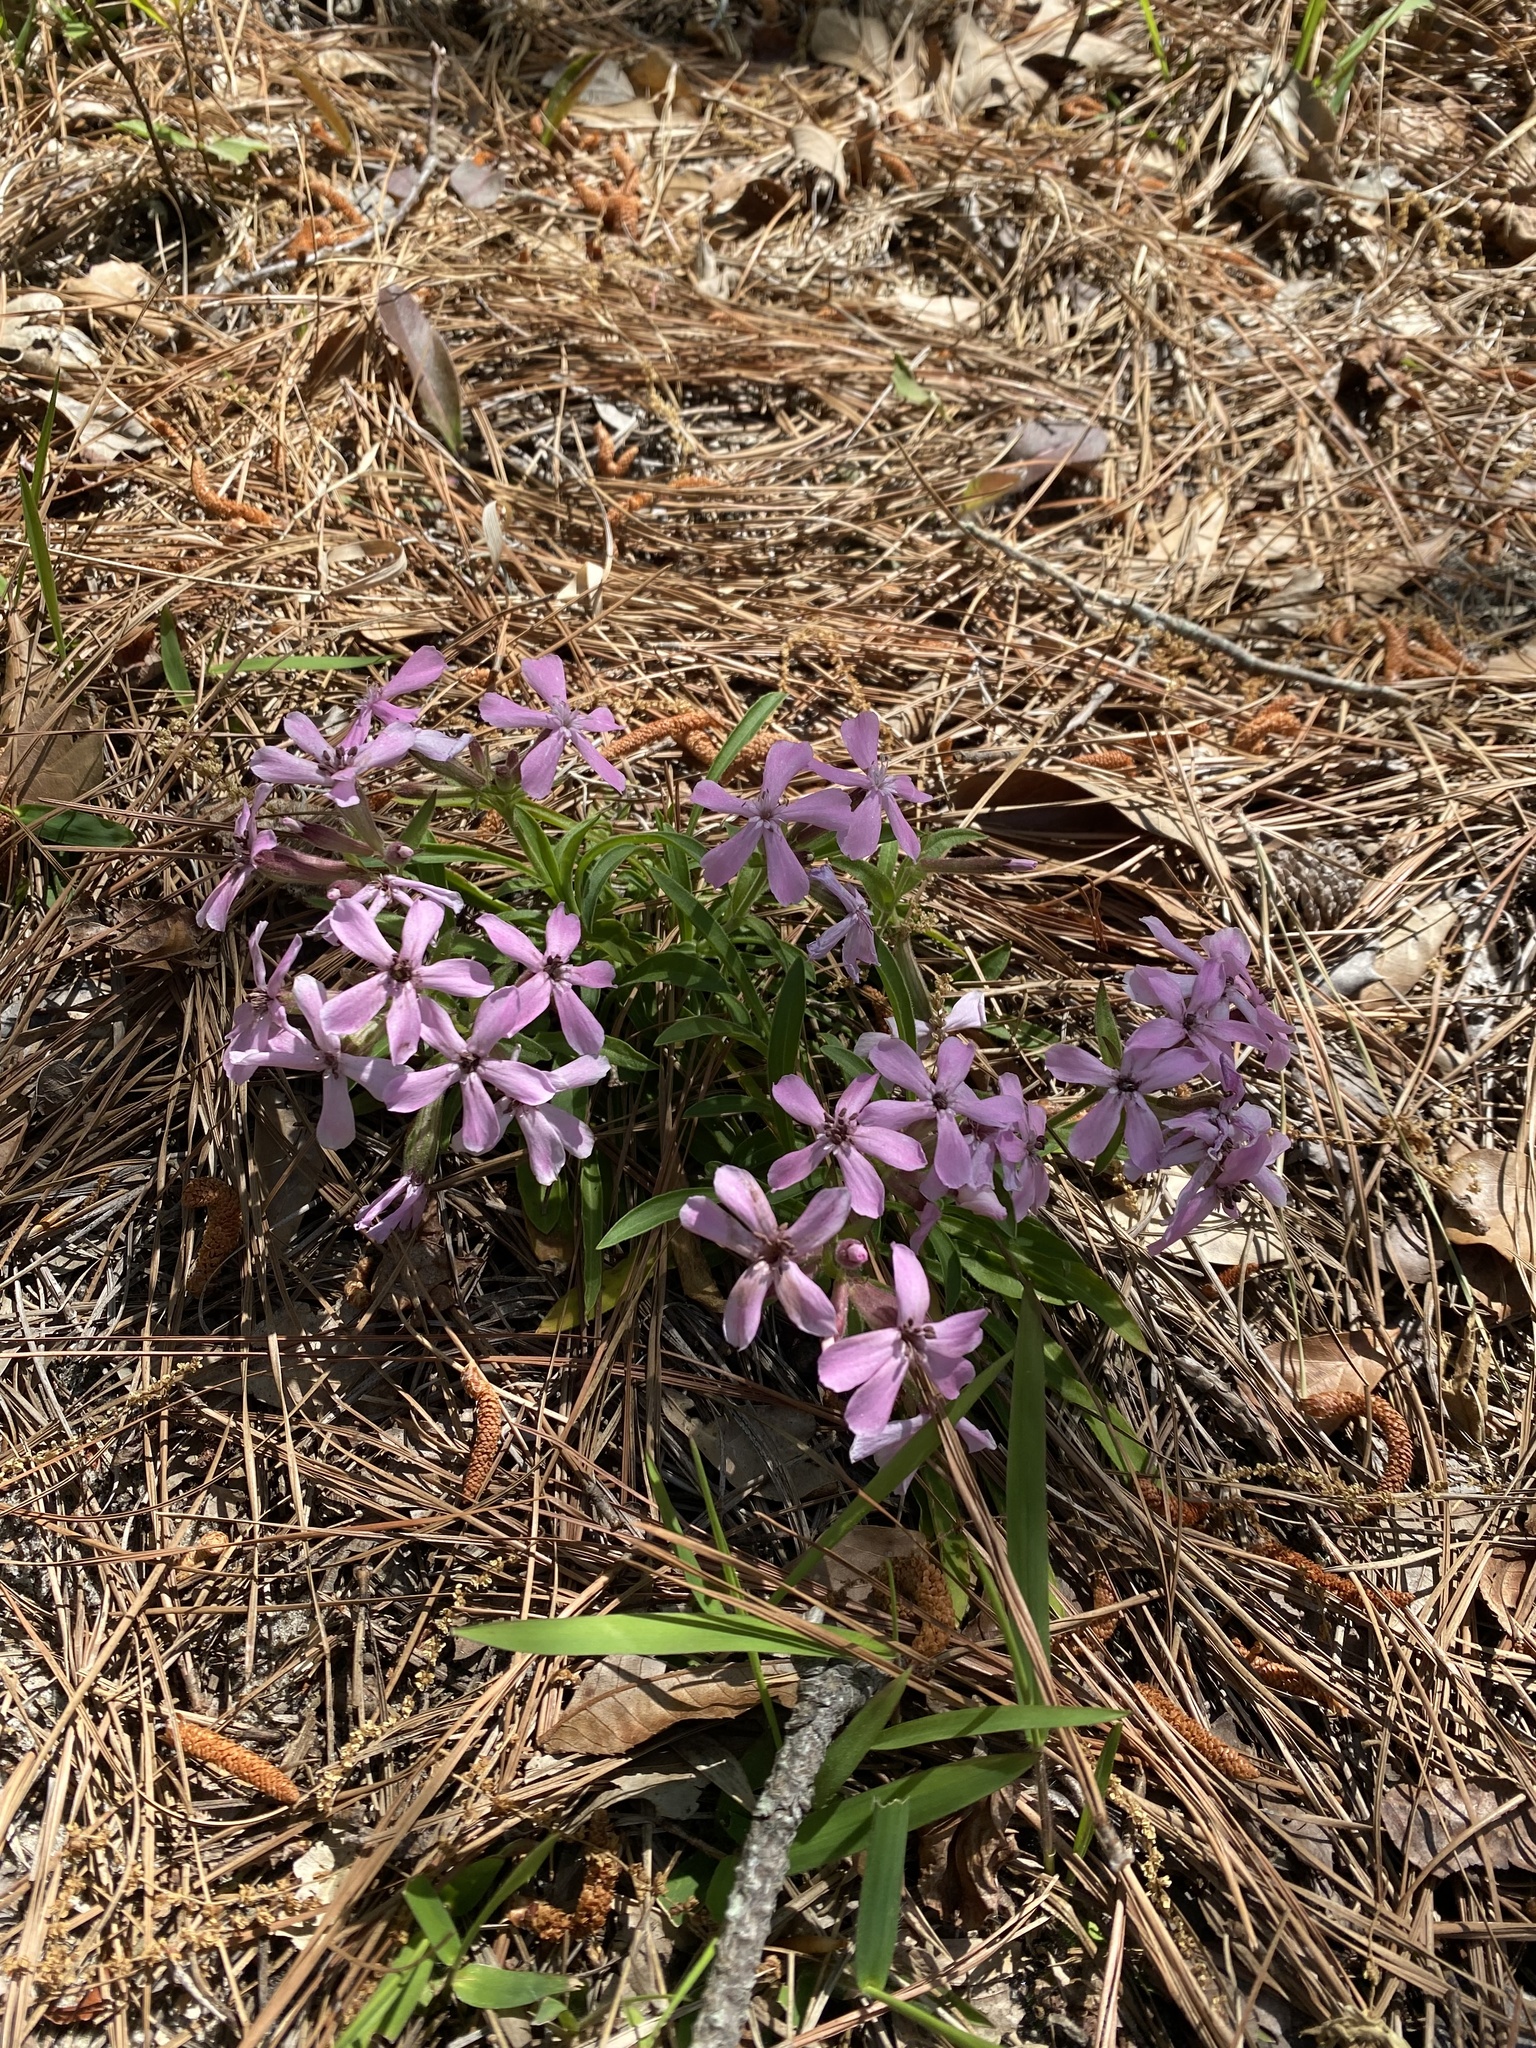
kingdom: Plantae
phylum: Tracheophyta
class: Magnoliopsida
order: Caryophyllales
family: Caryophyllaceae
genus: Silene
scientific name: Silene caroliniana
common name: Sticky catchfly
